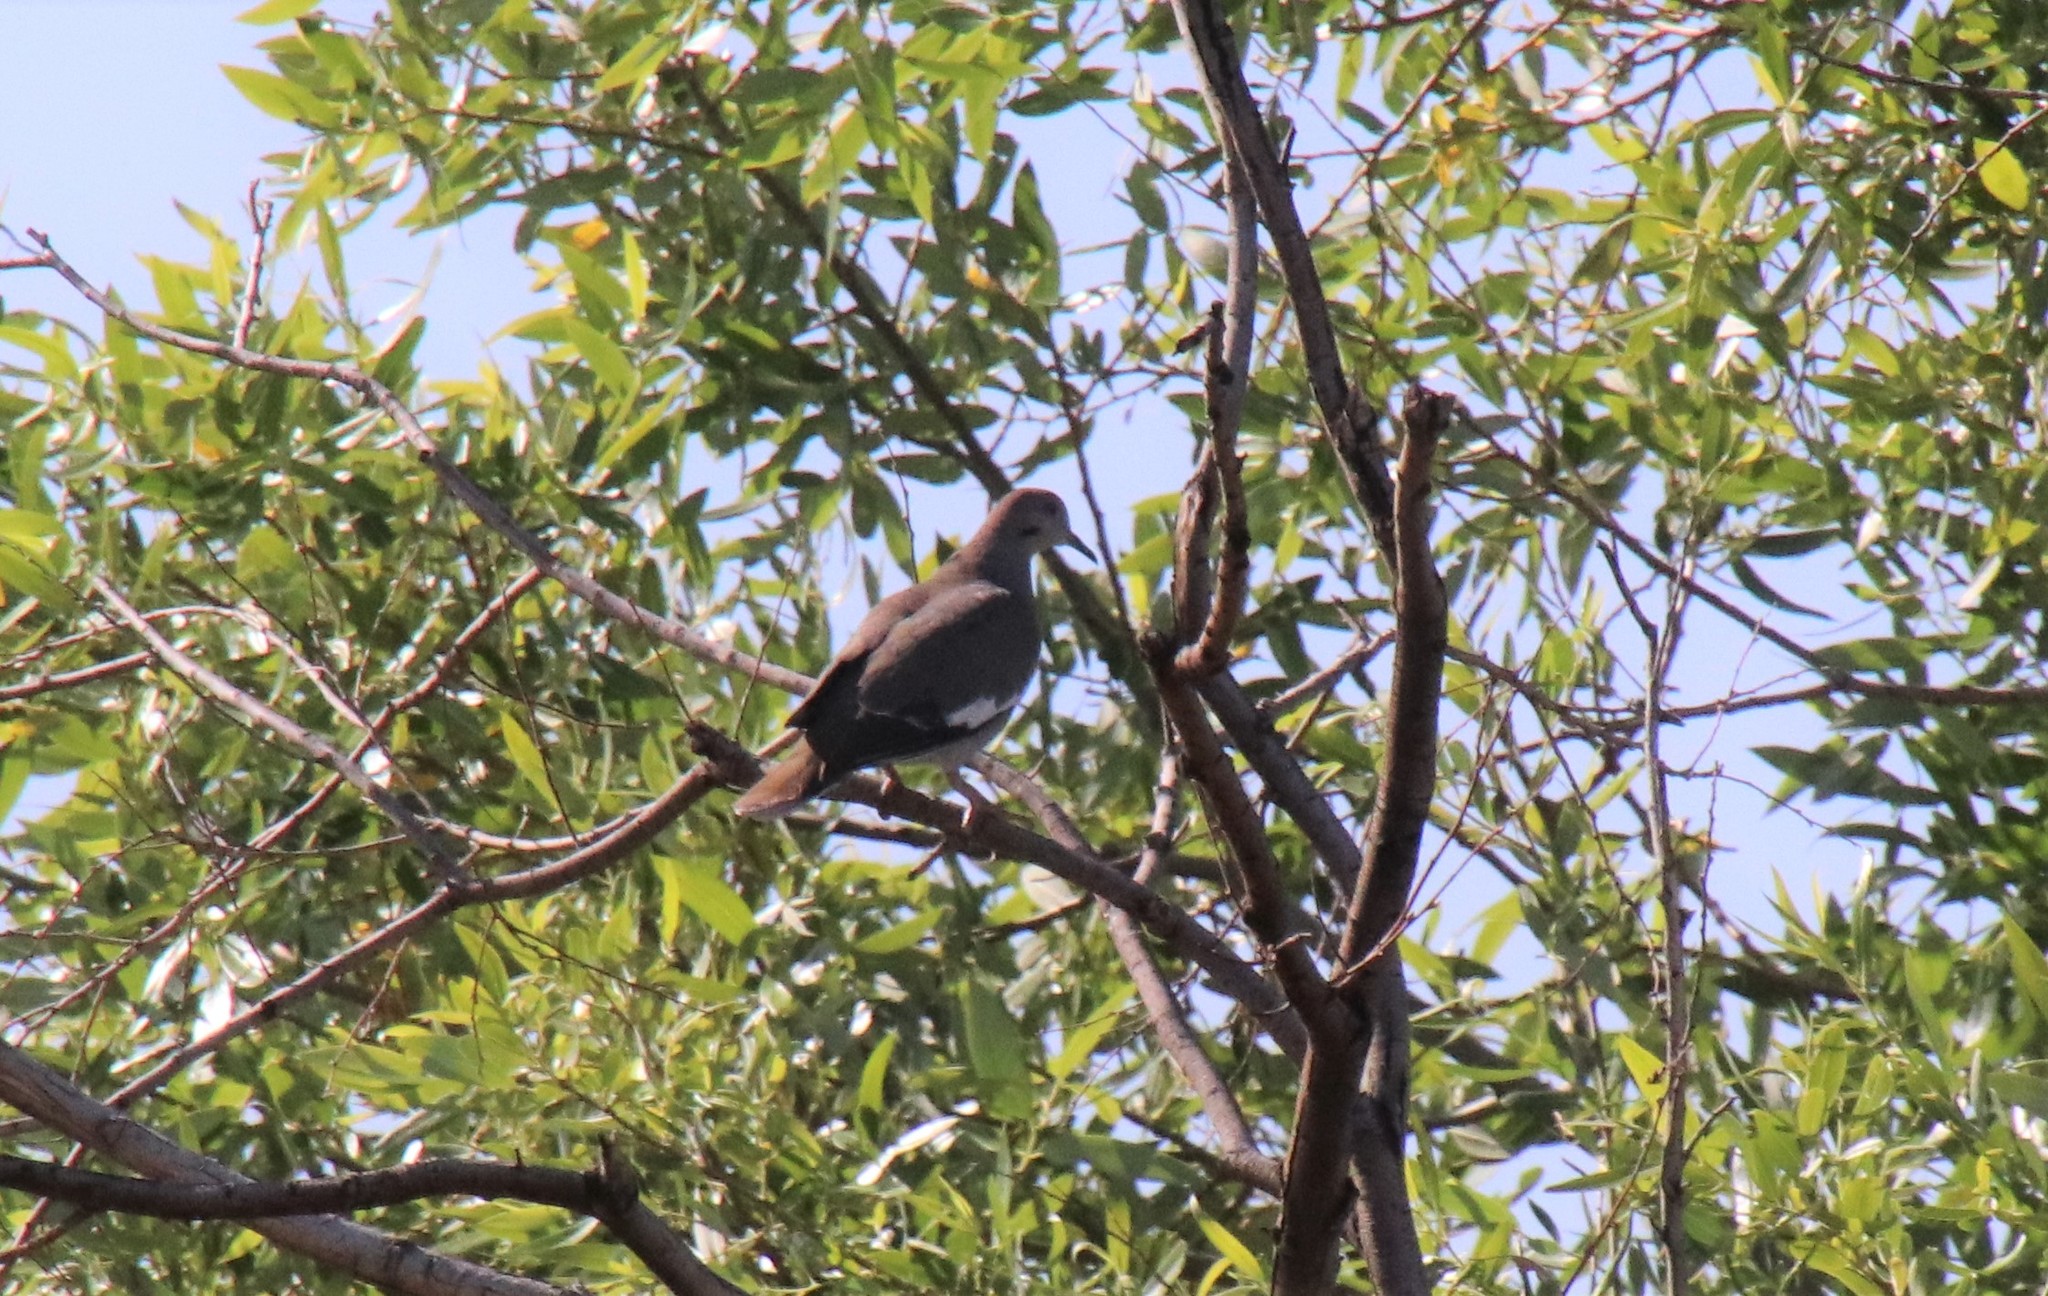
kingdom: Animalia
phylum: Chordata
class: Aves
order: Columbiformes
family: Columbidae
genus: Zenaida
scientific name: Zenaida asiatica
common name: White-winged dove
